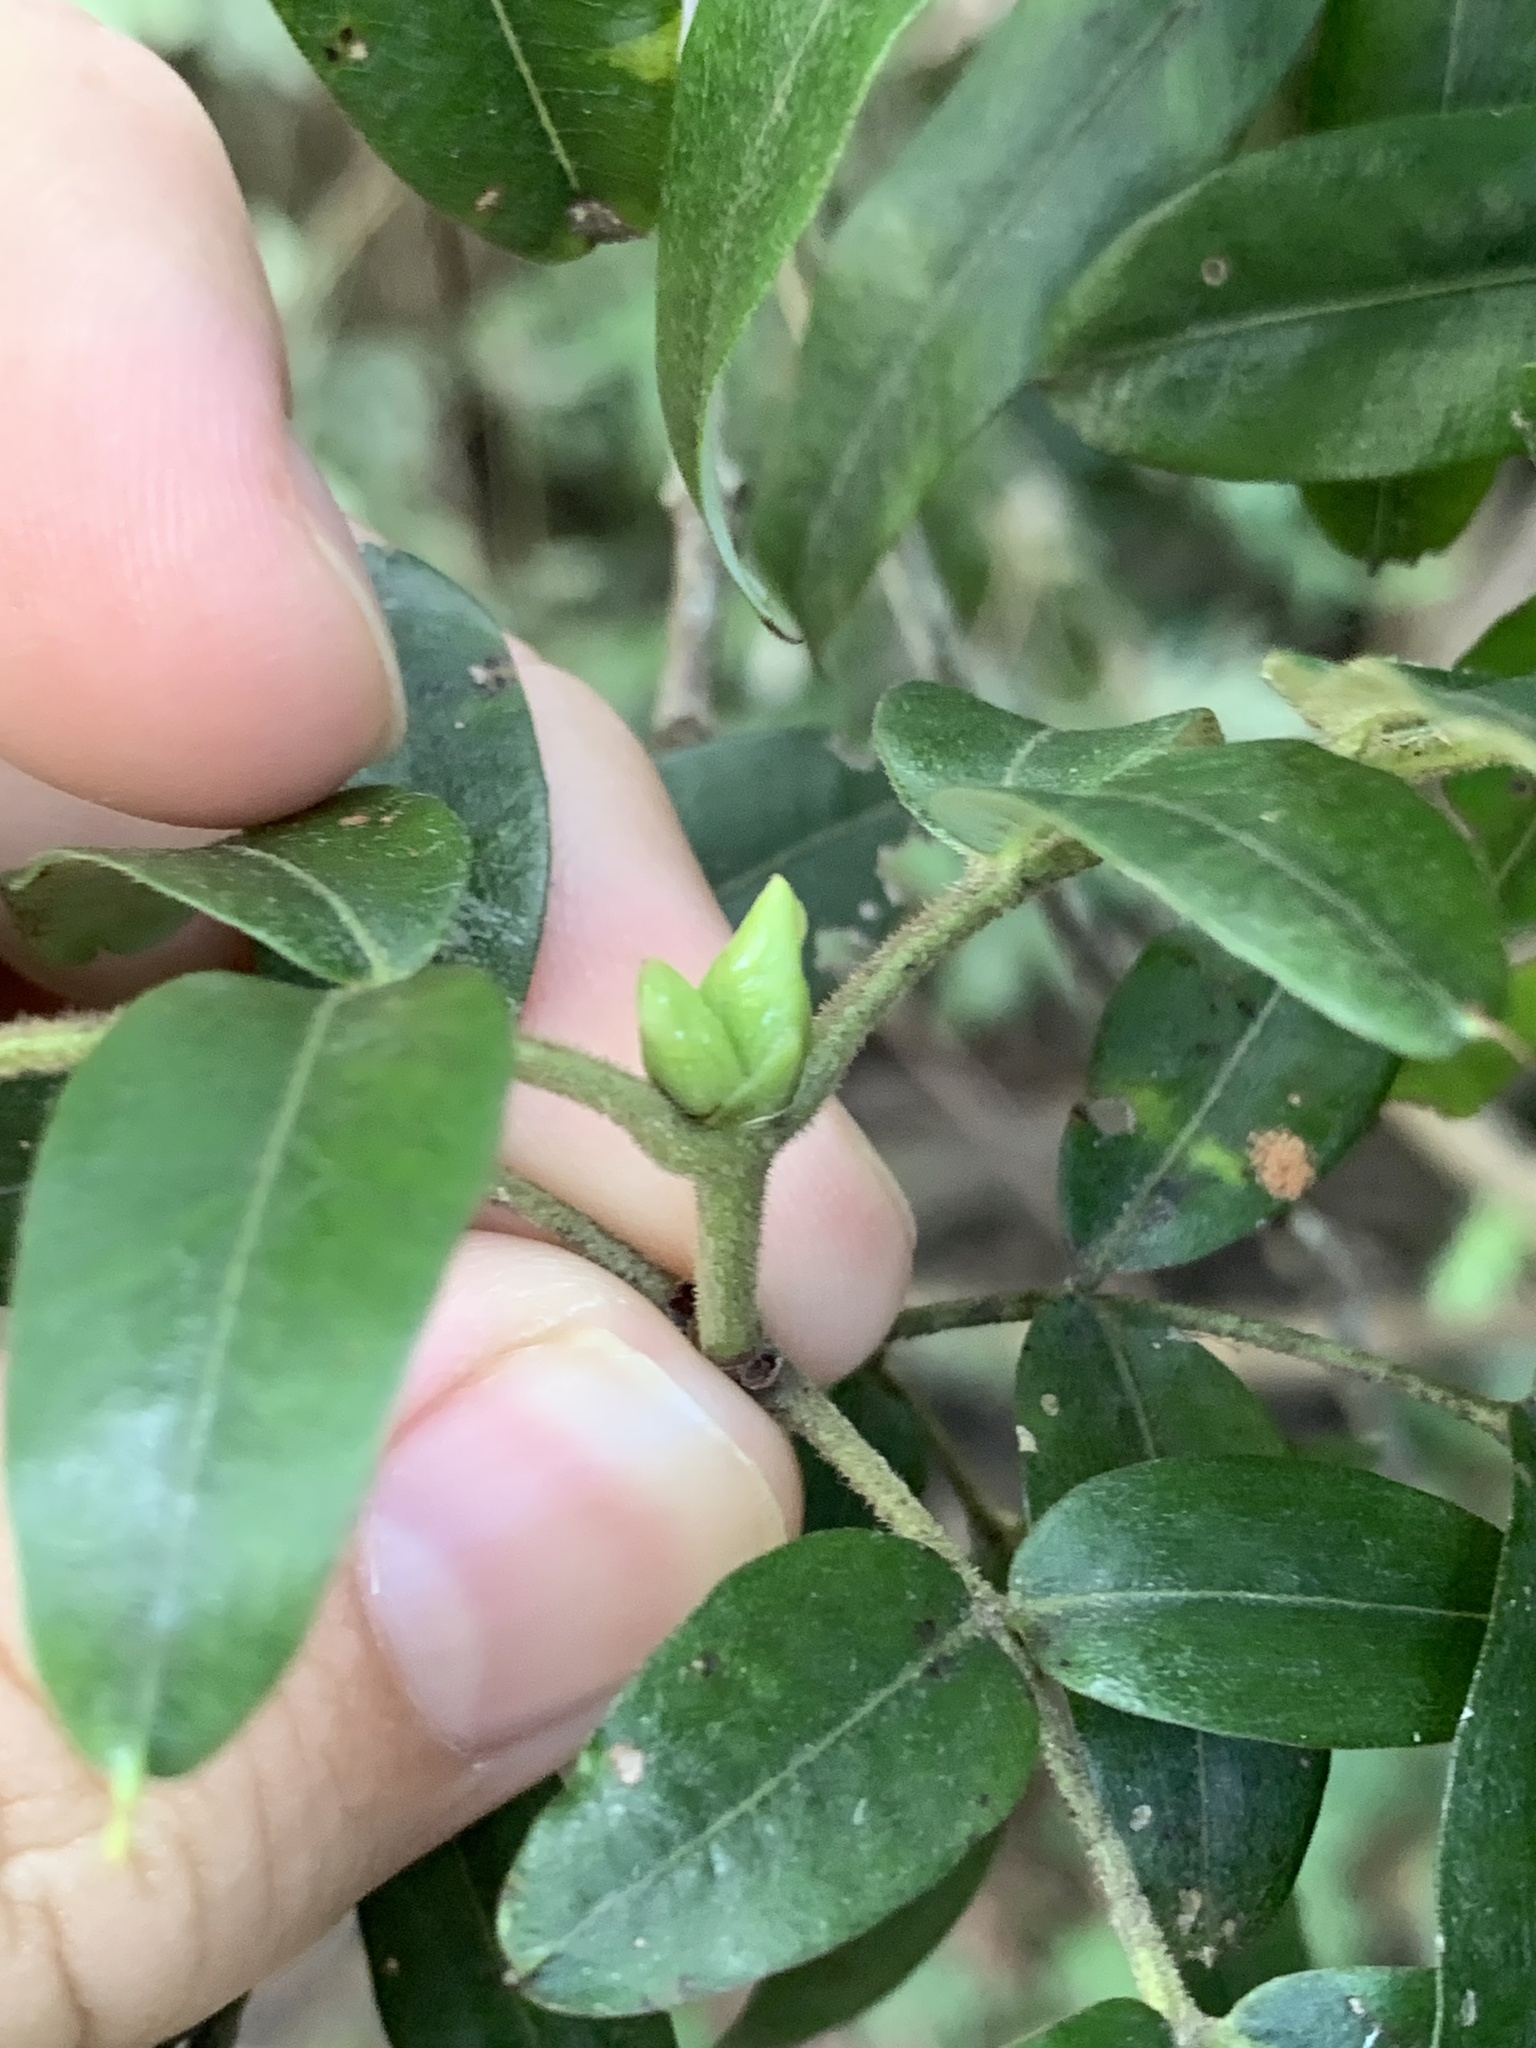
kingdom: Plantae
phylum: Tracheophyta
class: Magnoliopsida
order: Oxalidales
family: Cunoniaceae
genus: Eucryphia
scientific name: Eucryphia moorei
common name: Acacia-plum
